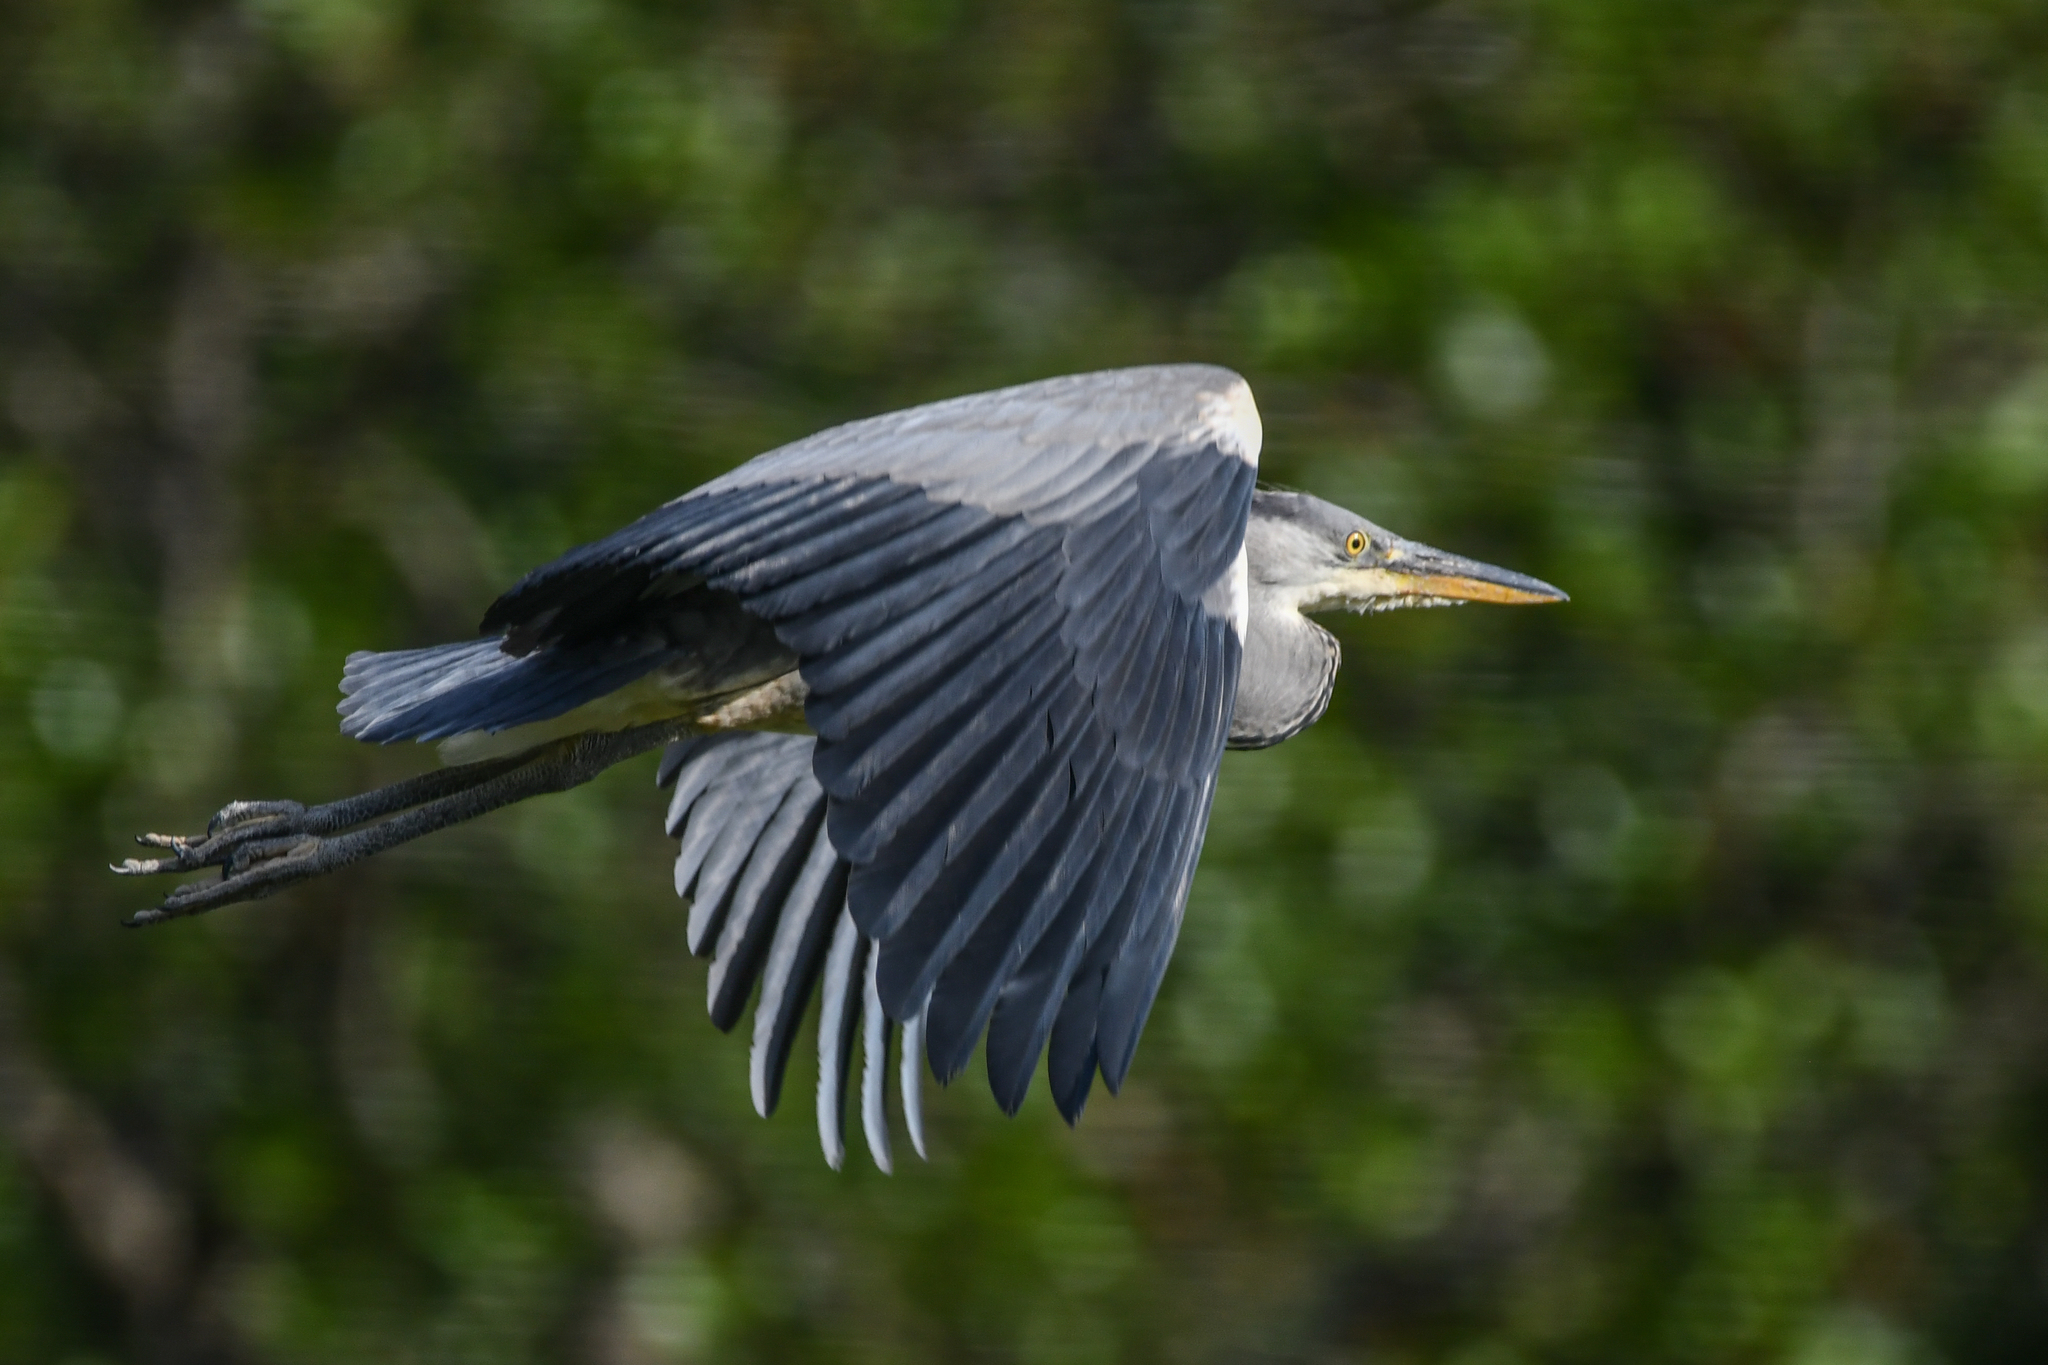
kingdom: Animalia
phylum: Chordata
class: Aves
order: Pelecaniformes
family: Ardeidae
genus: Ardea
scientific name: Ardea cinerea
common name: Grey heron
